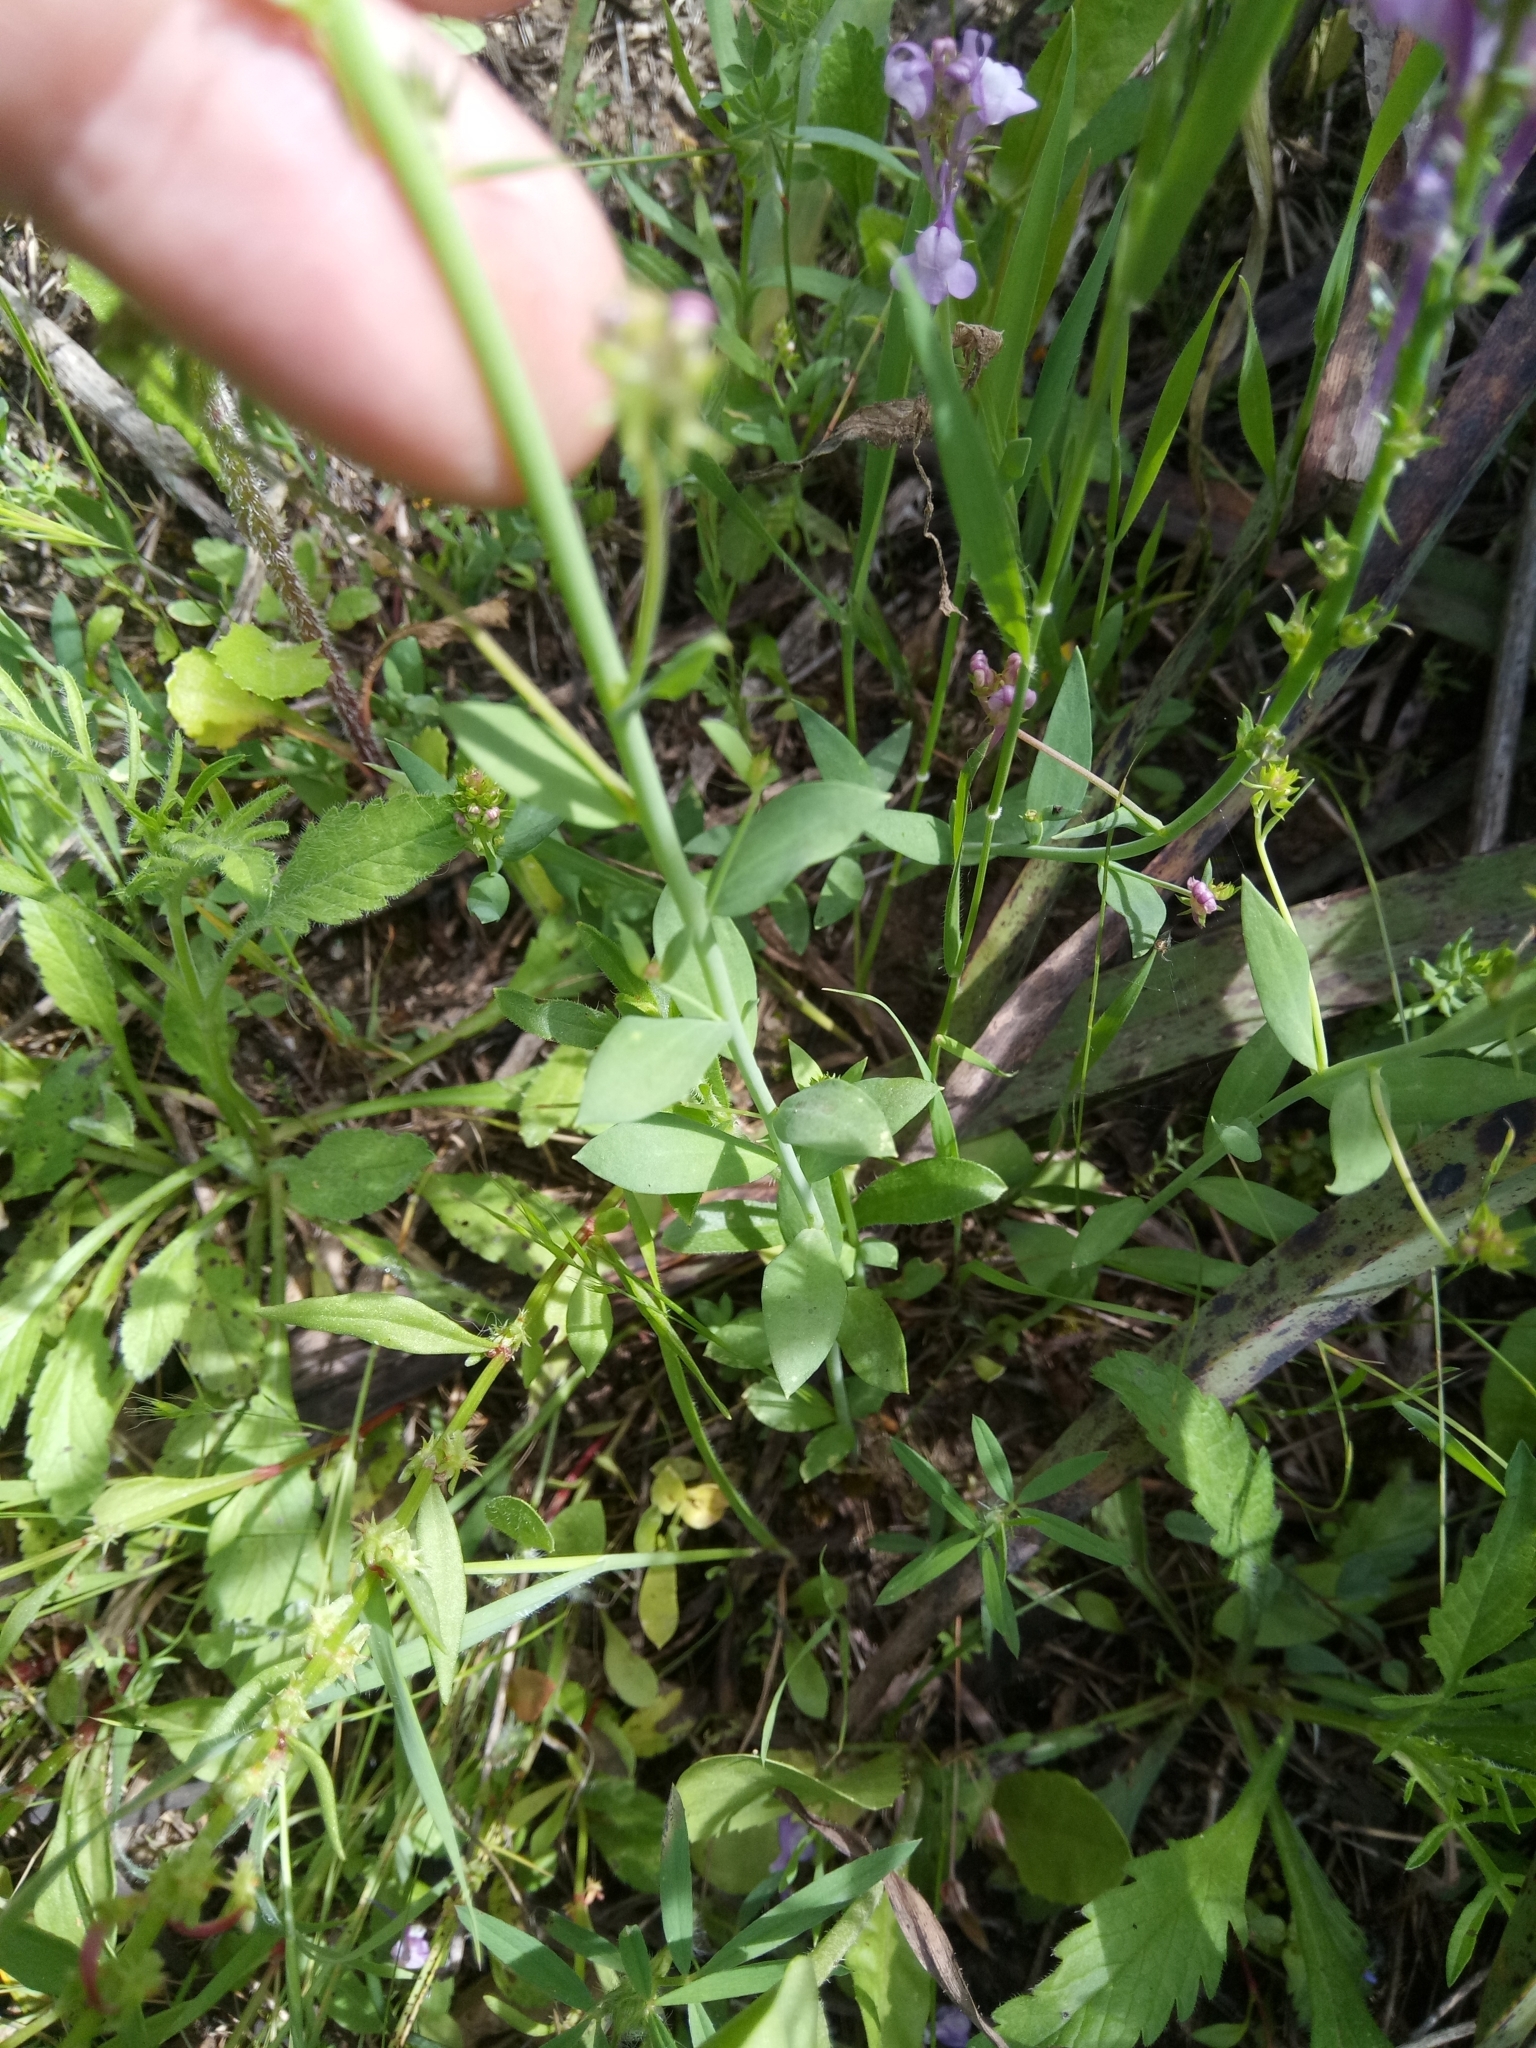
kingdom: Plantae
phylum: Tracheophyta
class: Magnoliopsida
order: Lamiales
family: Plantaginaceae
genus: Linaria
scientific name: Linaria virgata
